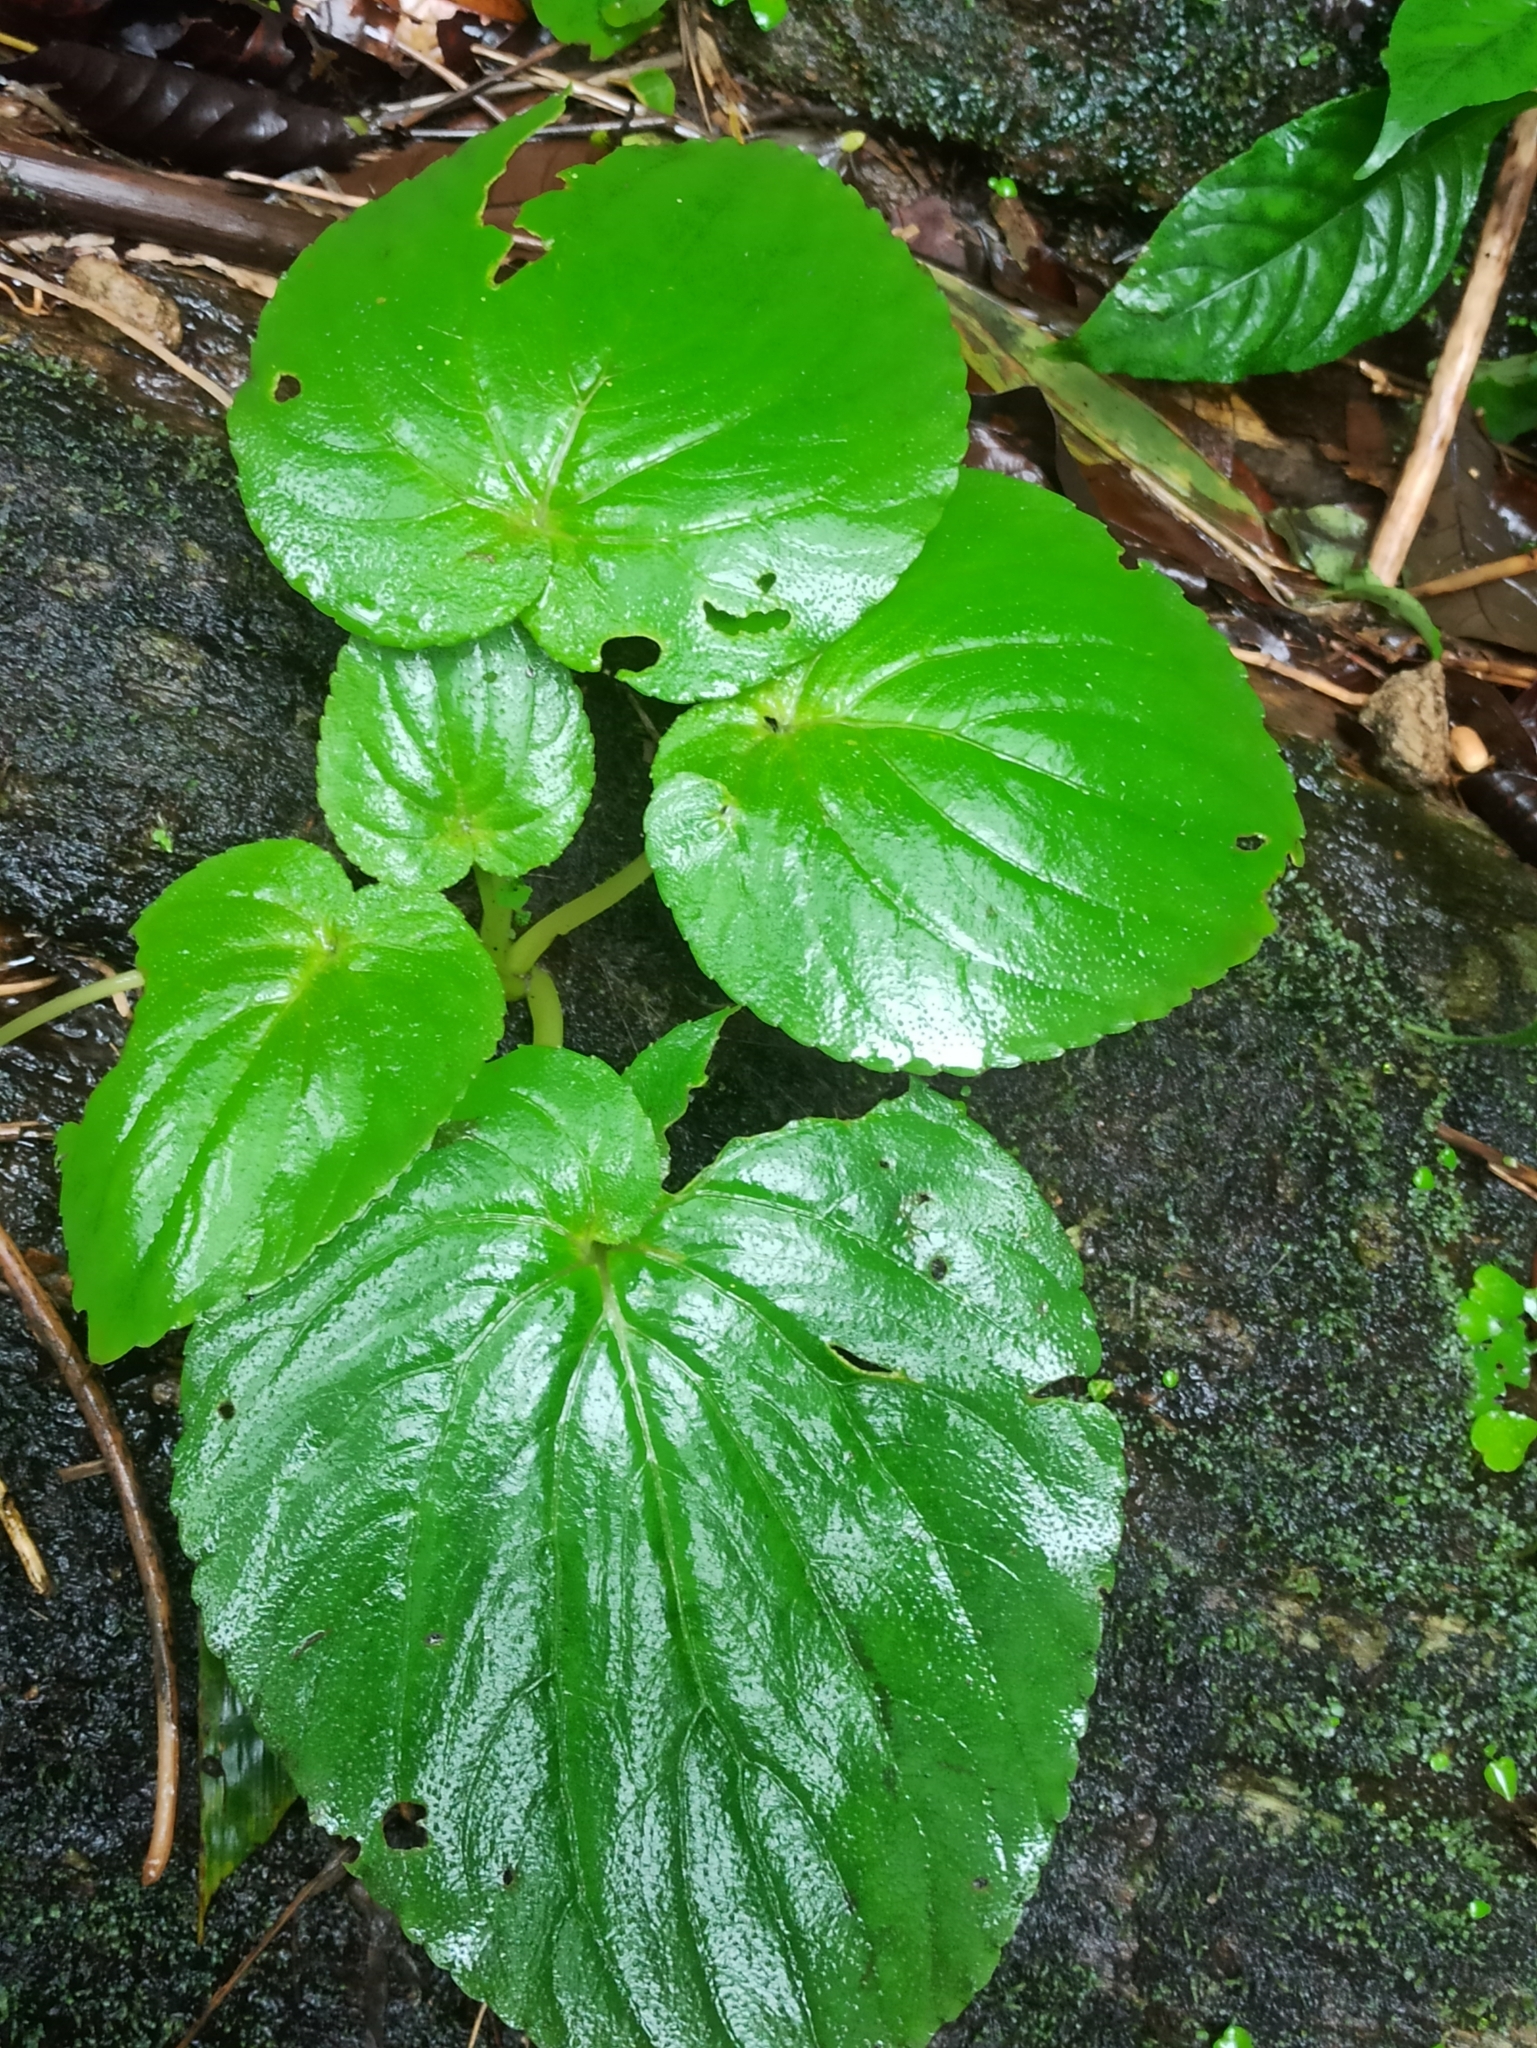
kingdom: Plantae
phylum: Tracheophyta
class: Magnoliopsida
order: Ericales
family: Balsaminaceae
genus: Impatiens
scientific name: Impatiens scapiflora
